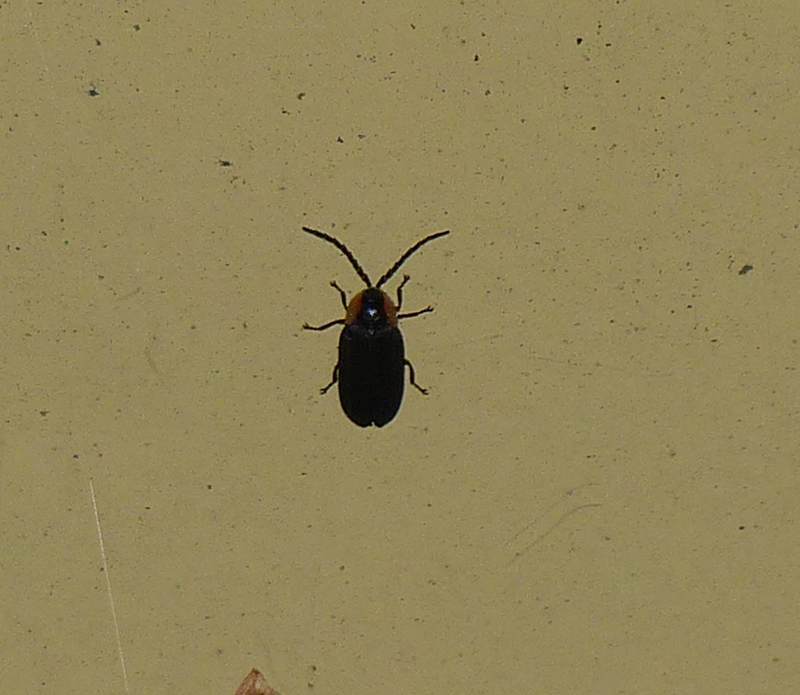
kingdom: Animalia
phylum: Arthropoda
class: Insecta
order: Coleoptera
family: Lampyridae
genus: Lucidota
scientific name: Lucidota atra
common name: Black firefly
